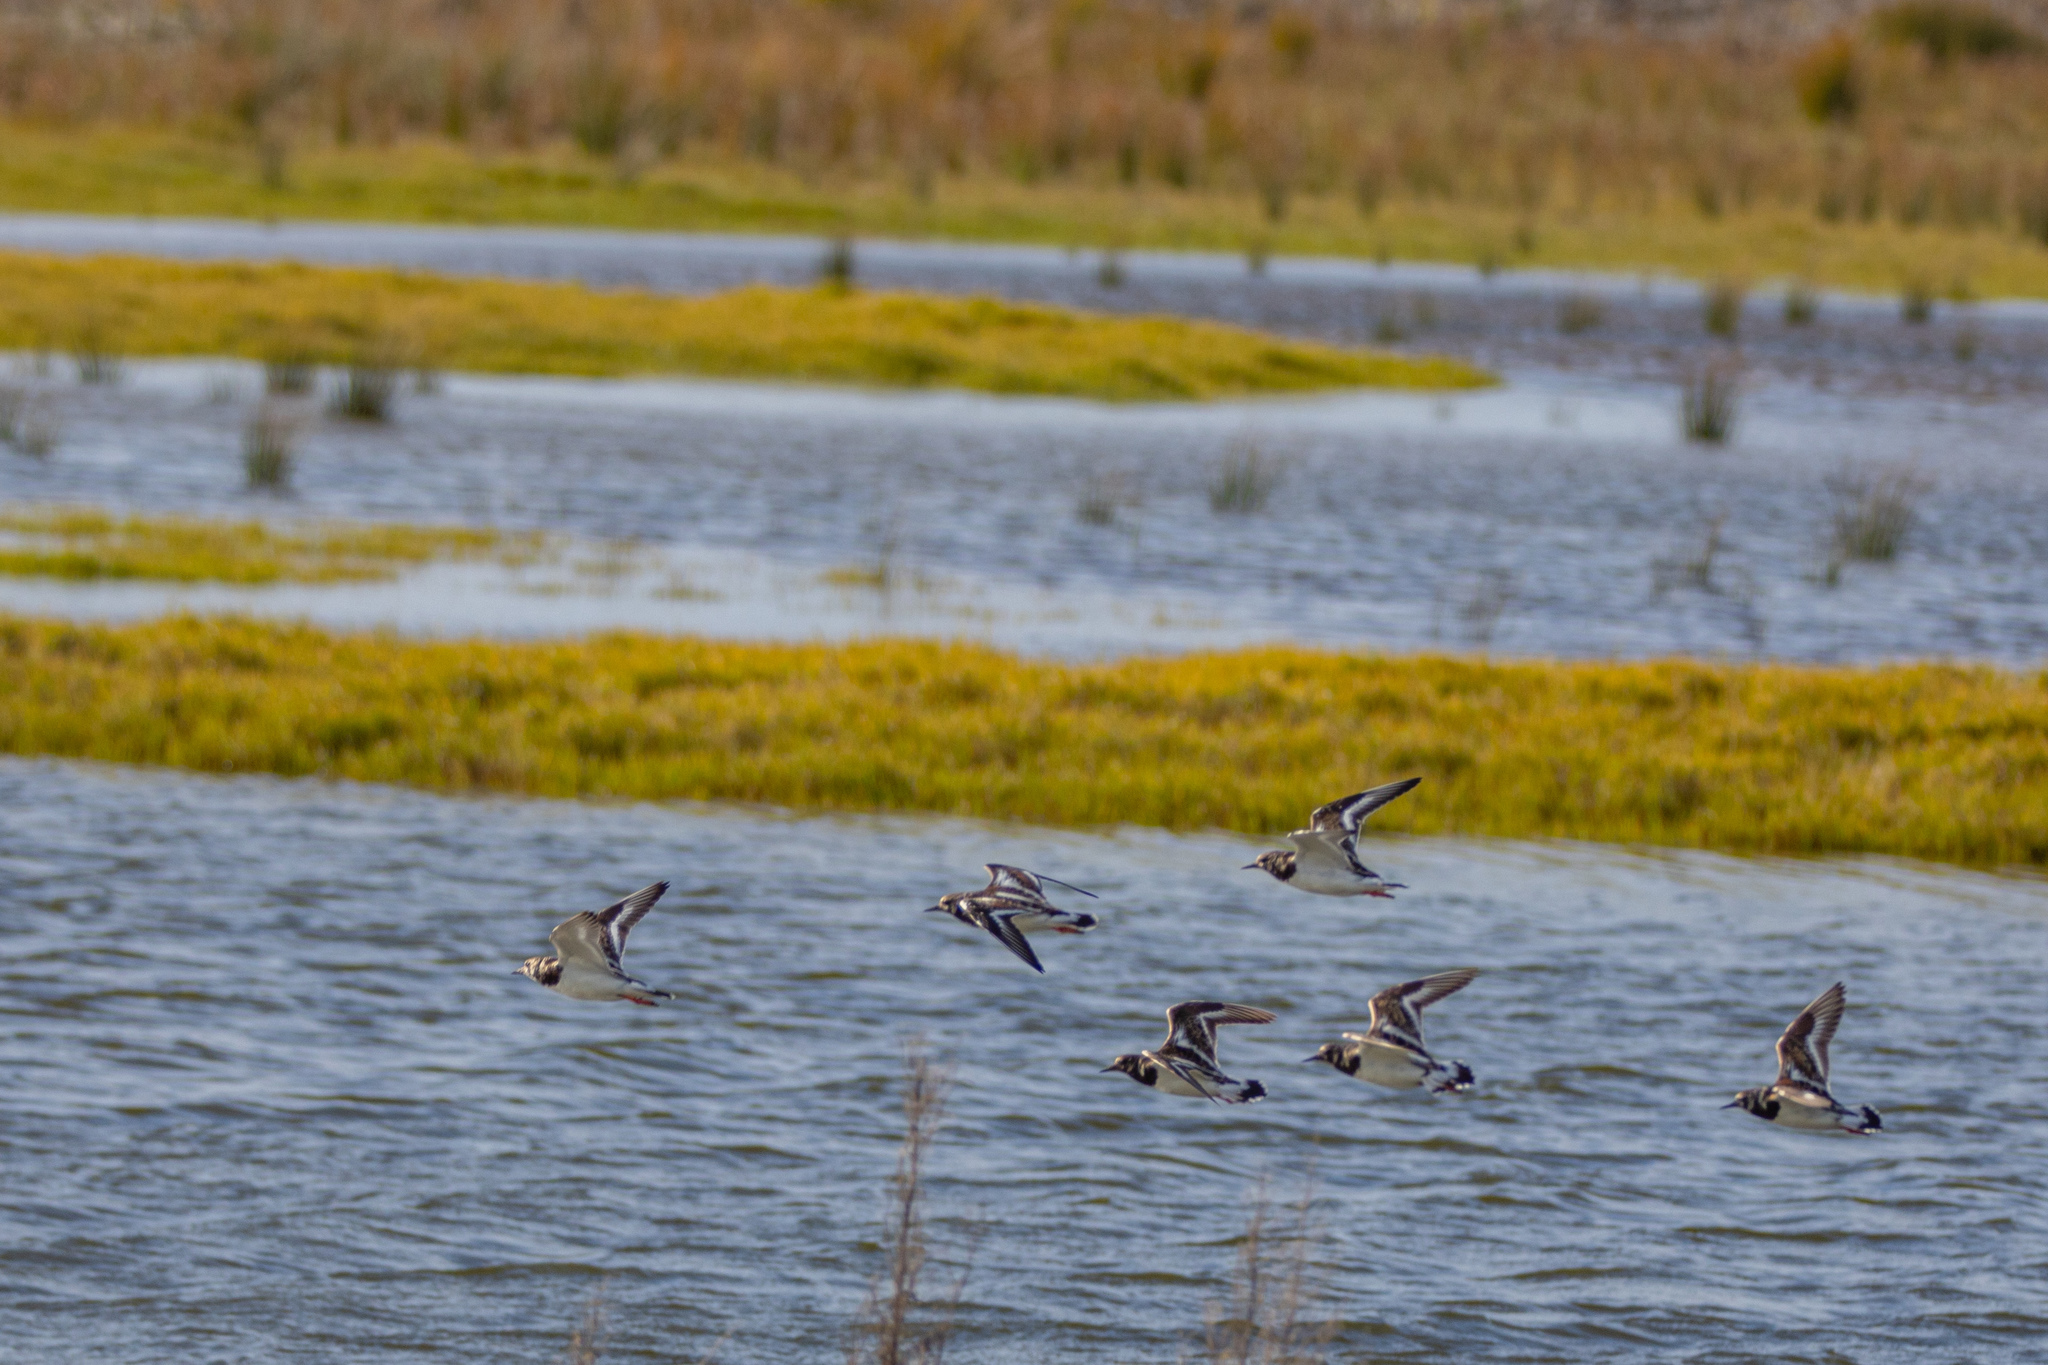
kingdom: Animalia
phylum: Chordata
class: Aves
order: Charadriiformes
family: Scolopacidae
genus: Arenaria
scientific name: Arenaria interpres
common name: Ruddy turnstone
